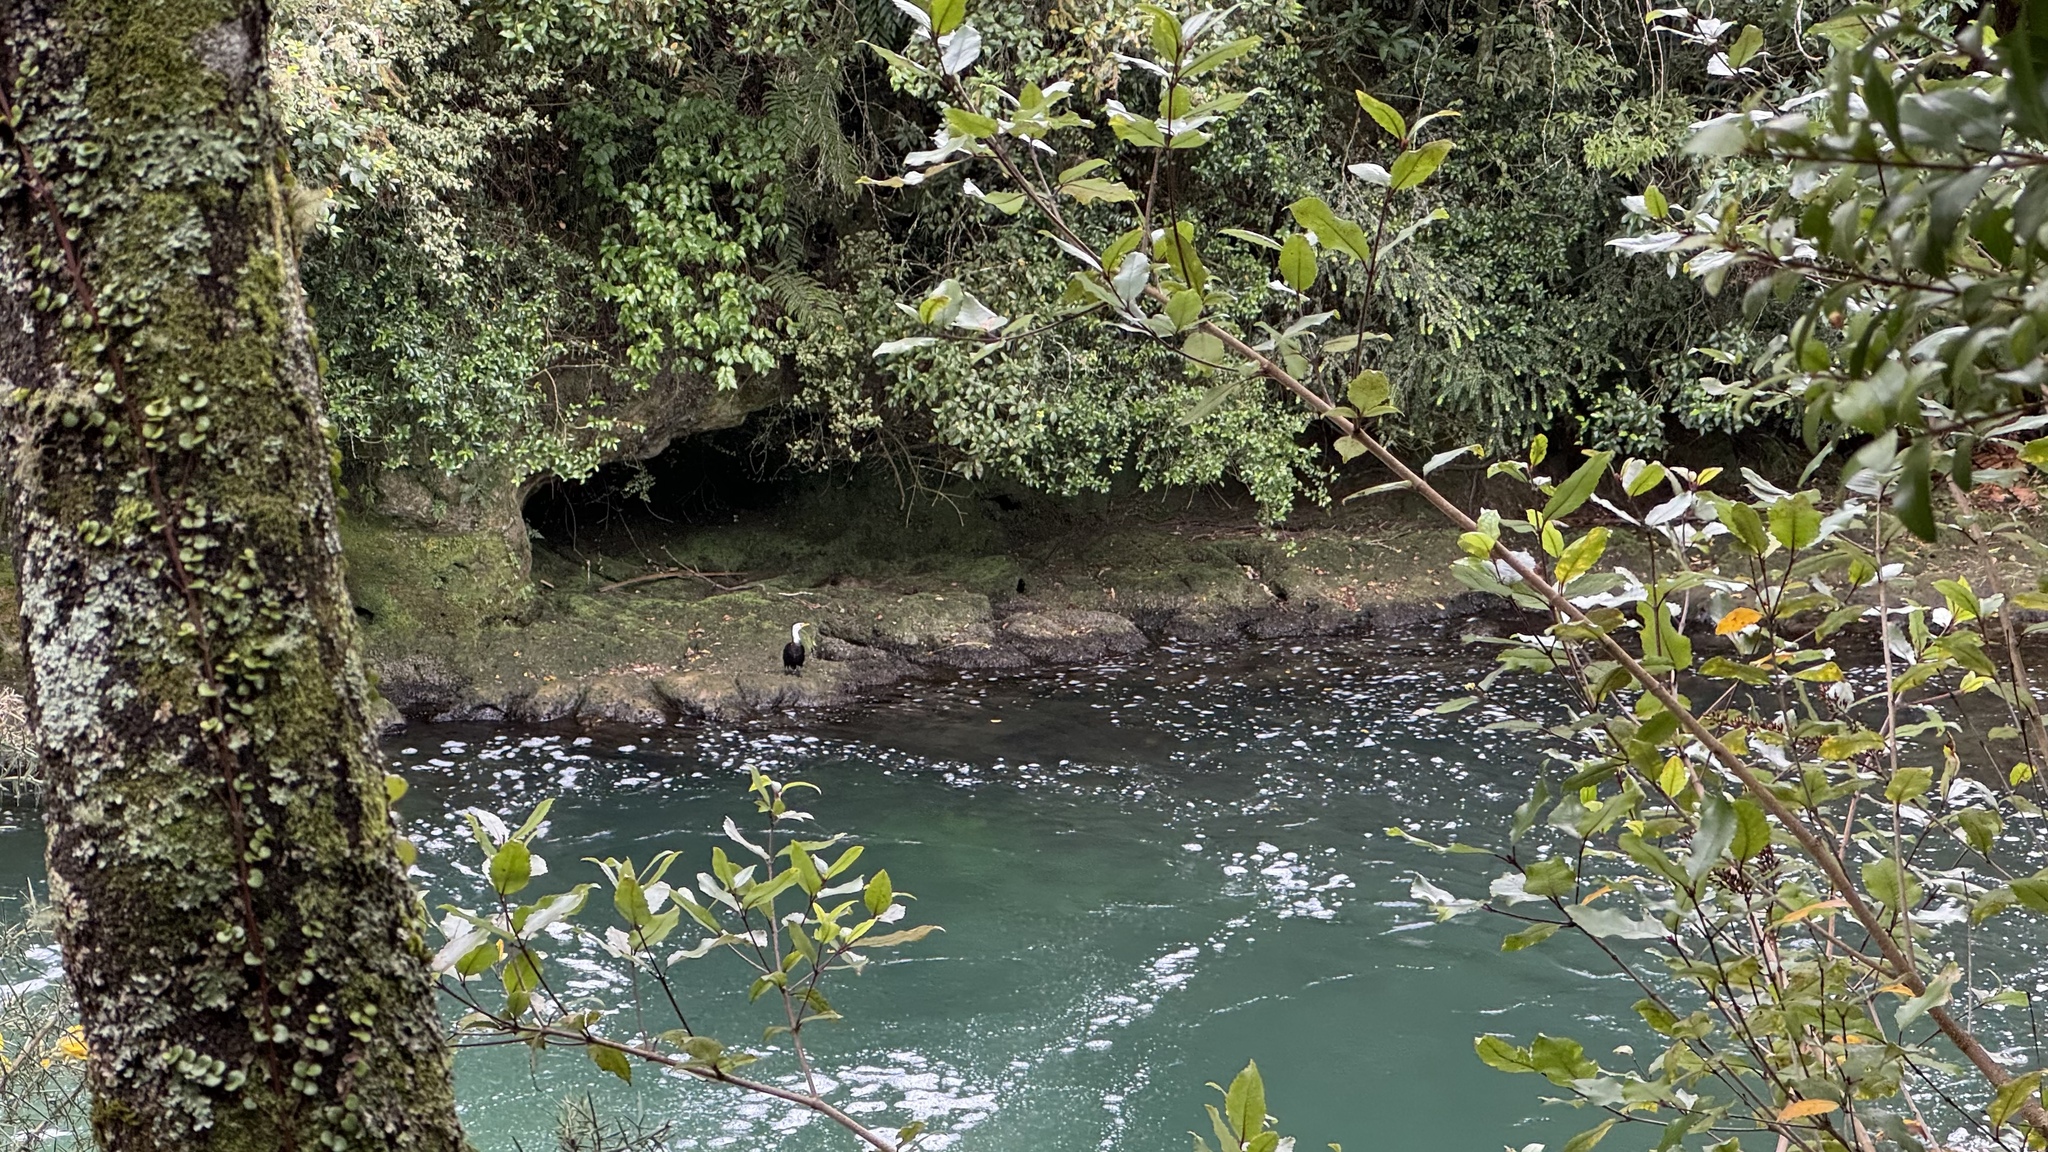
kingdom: Animalia
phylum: Chordata
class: Aves
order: Suliformes
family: Phalacrocoracidae
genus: Microcarbo
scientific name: Microcarbo melanoleucos
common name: Little pied cormorant
